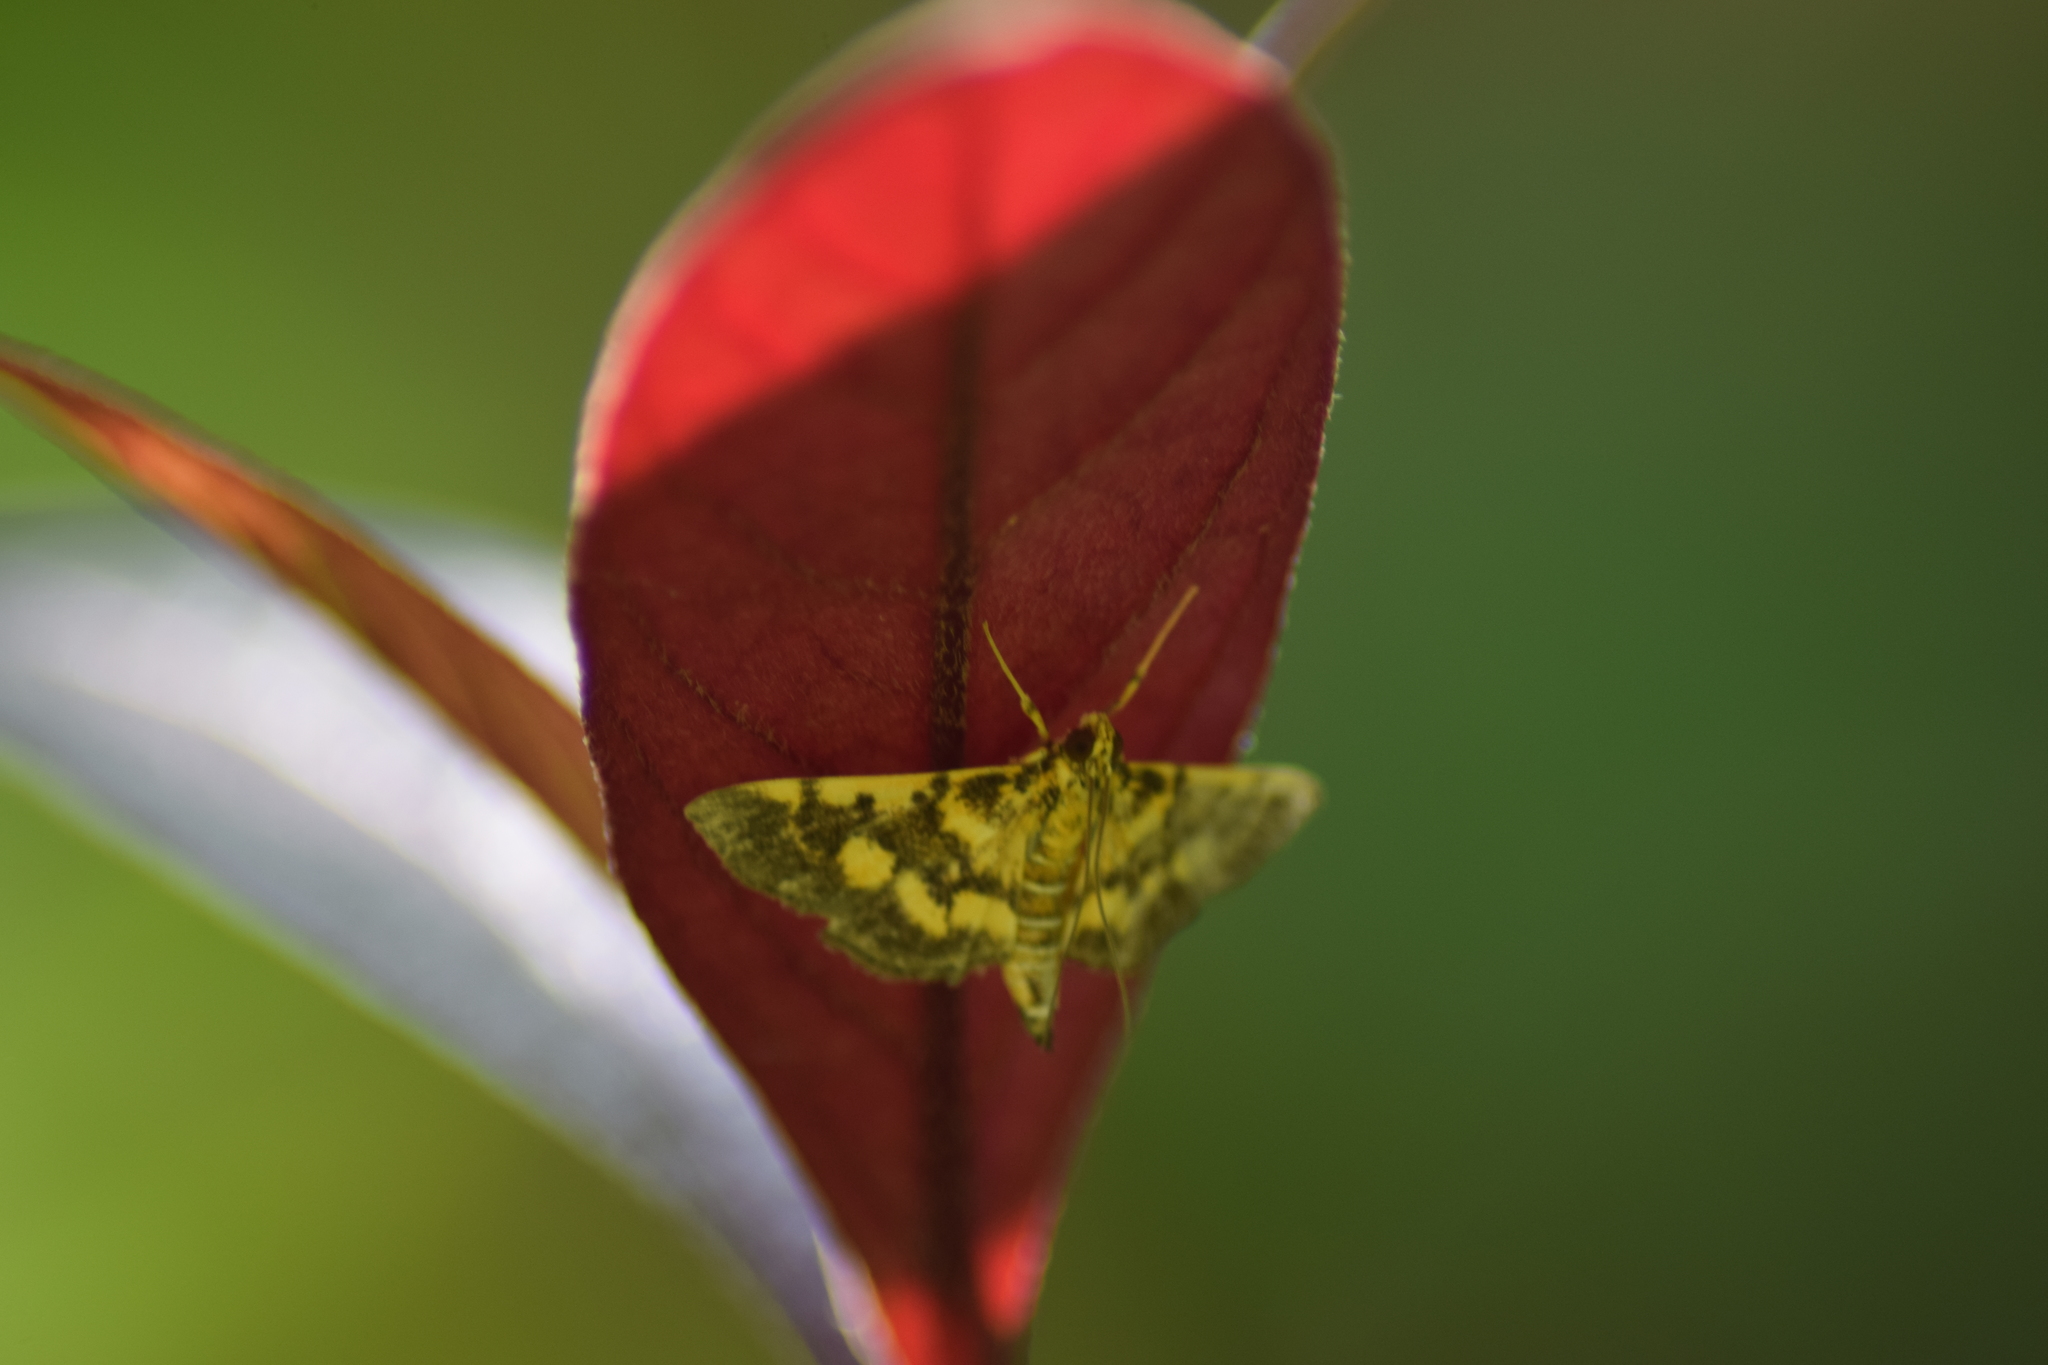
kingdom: Animalia
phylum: Arthropoda
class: Insecta
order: Lepidoptera
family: Crambidae
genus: Omiodes
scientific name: Omiodes diemenalis
